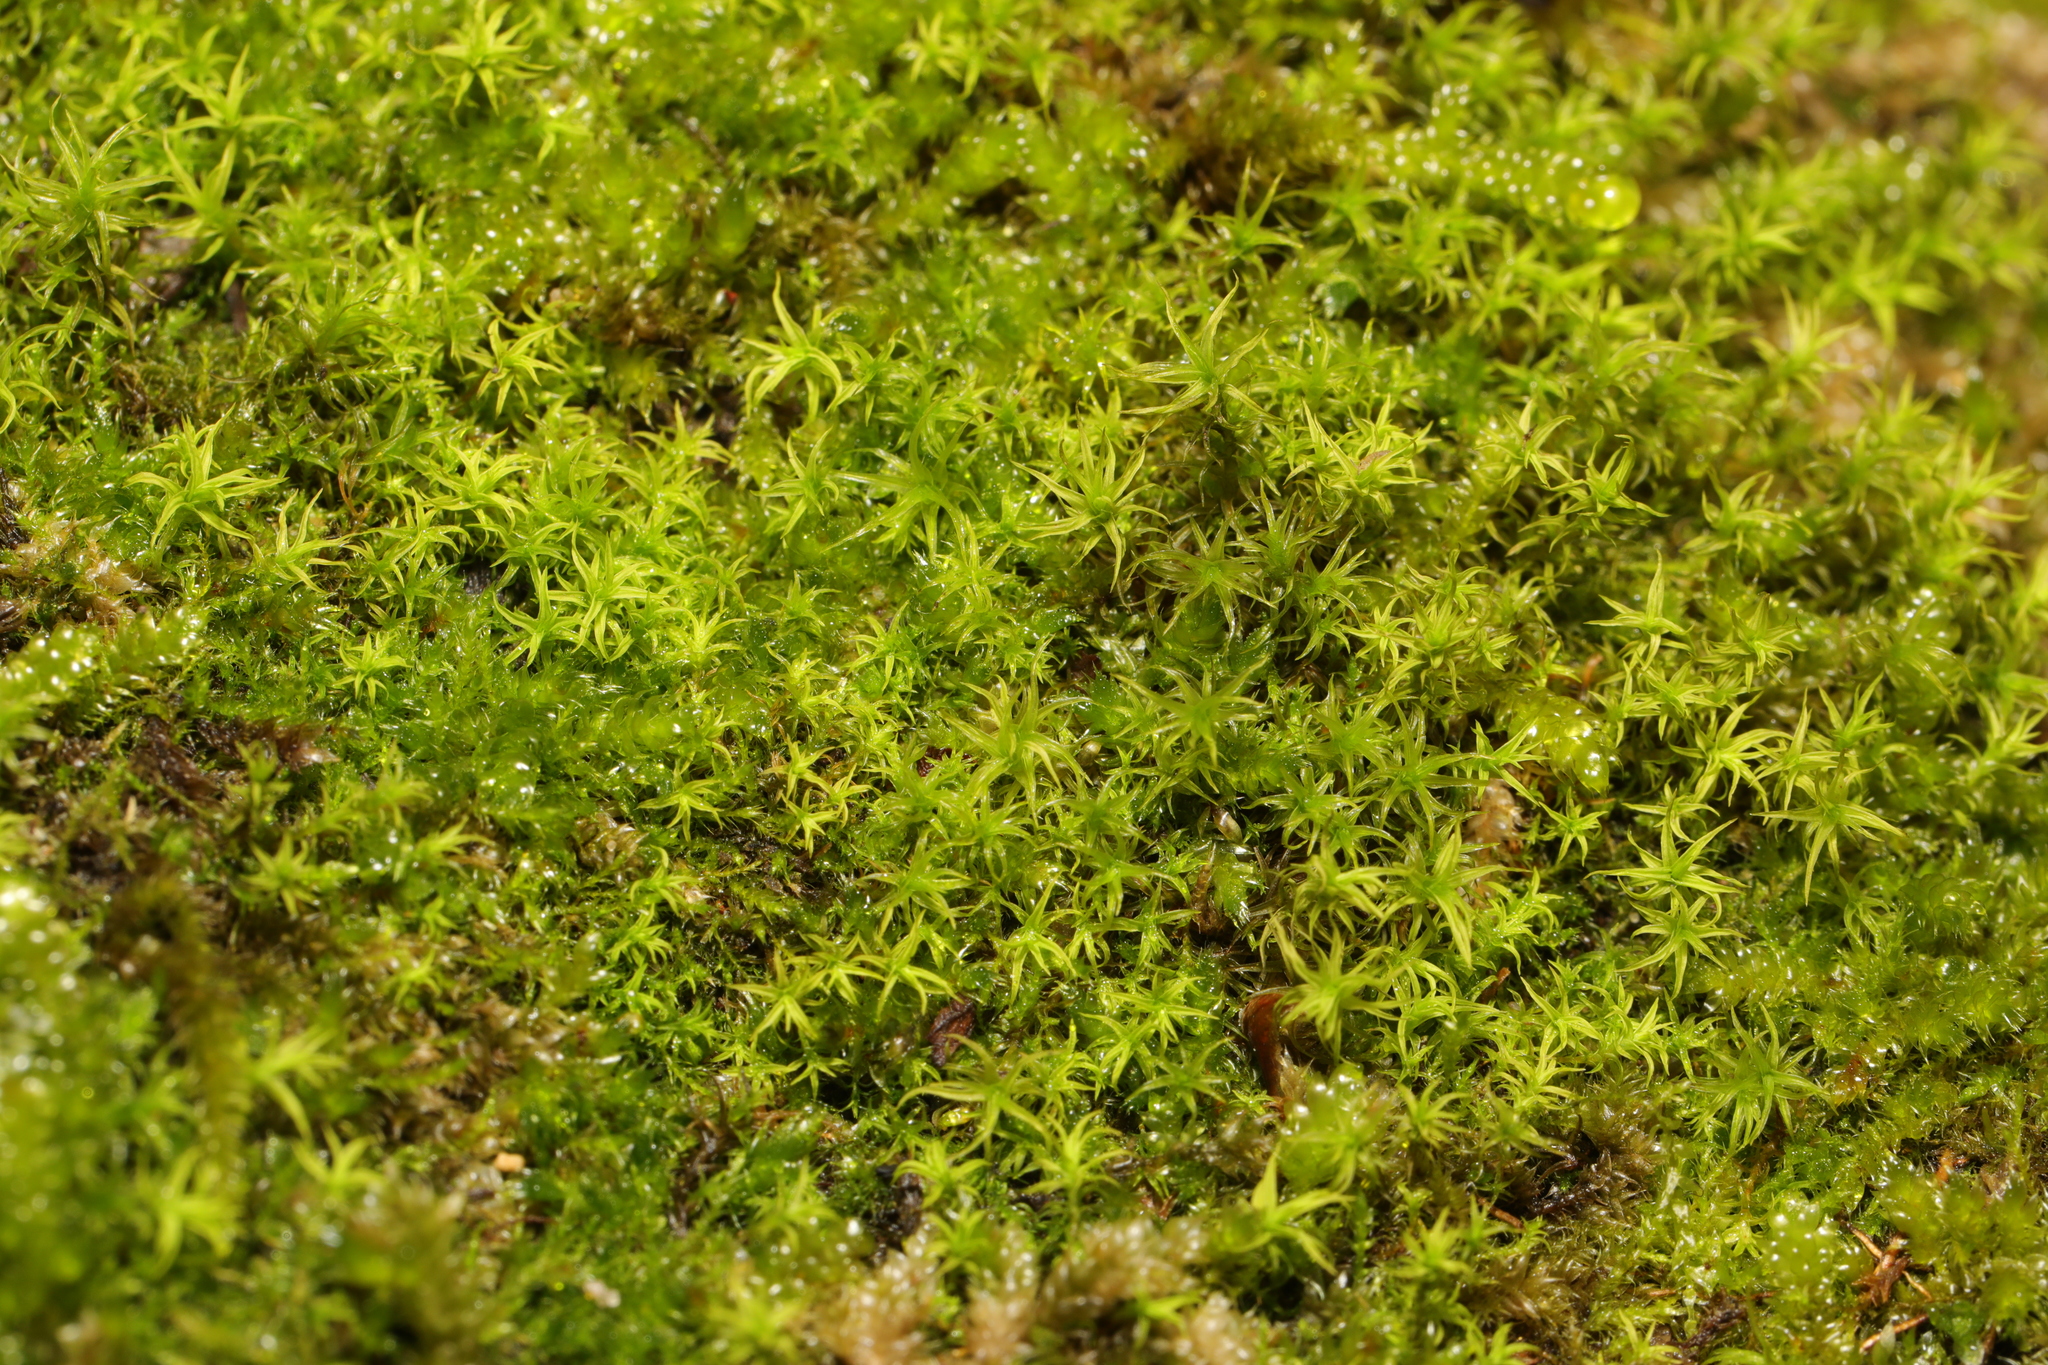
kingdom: Plantae
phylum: Bryophyta
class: Bryopsida
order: Pottiales
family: Pottiaceae
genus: Vinealobryum
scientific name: Vinealobryum insulanum
